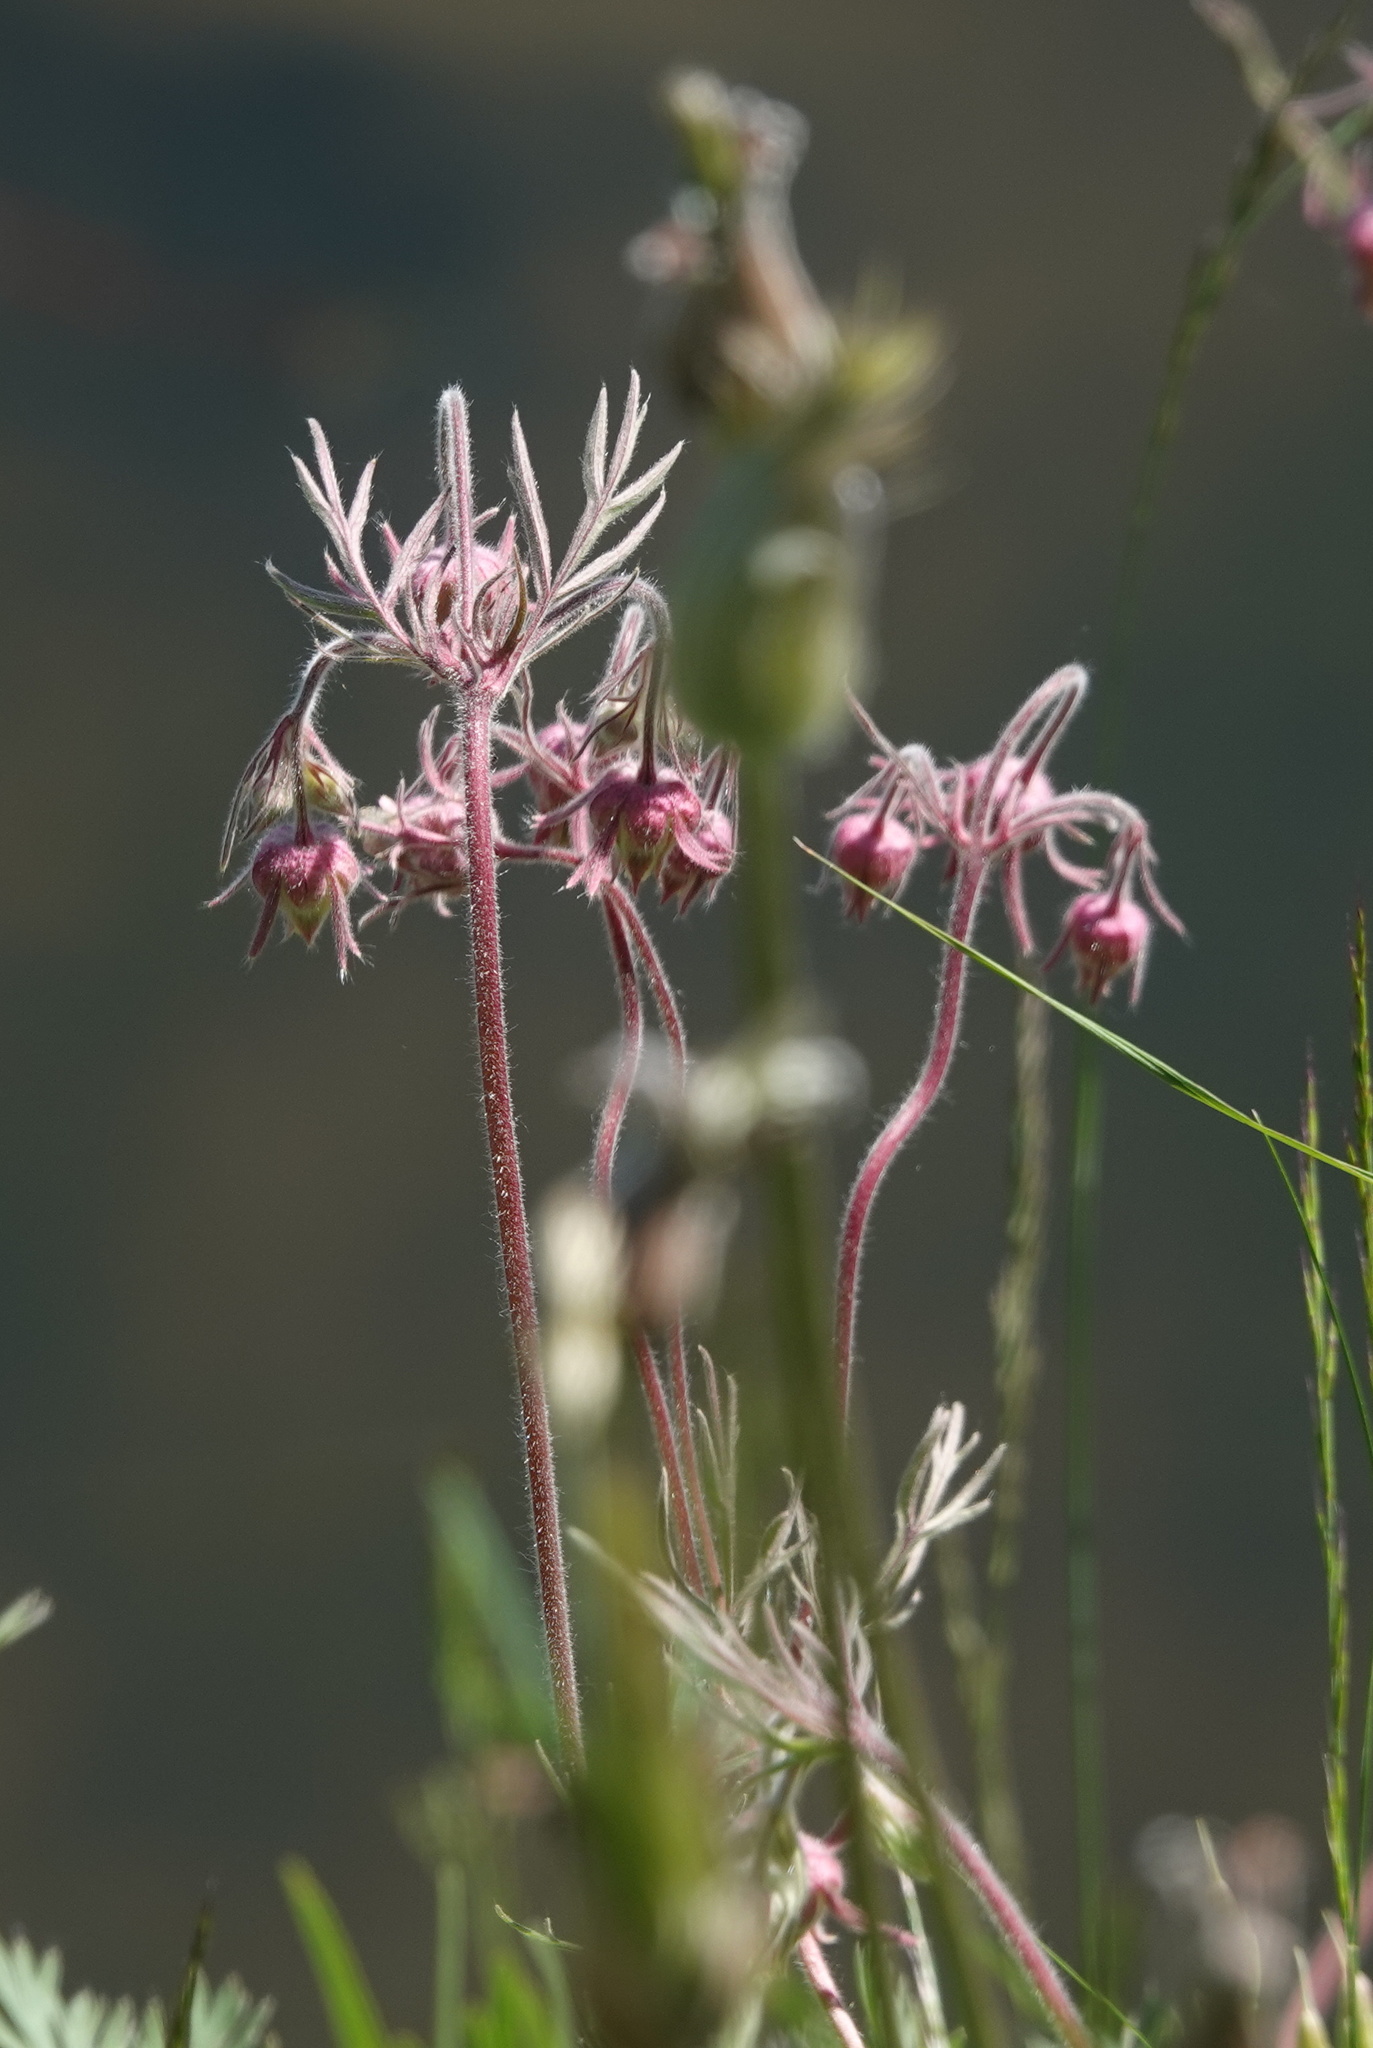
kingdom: Plantae
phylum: Tracheophyta
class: Magnoliopsida
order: Rosales
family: Rosaceae
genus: Geum
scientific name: Geum triflorum
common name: Old man's whiskers
